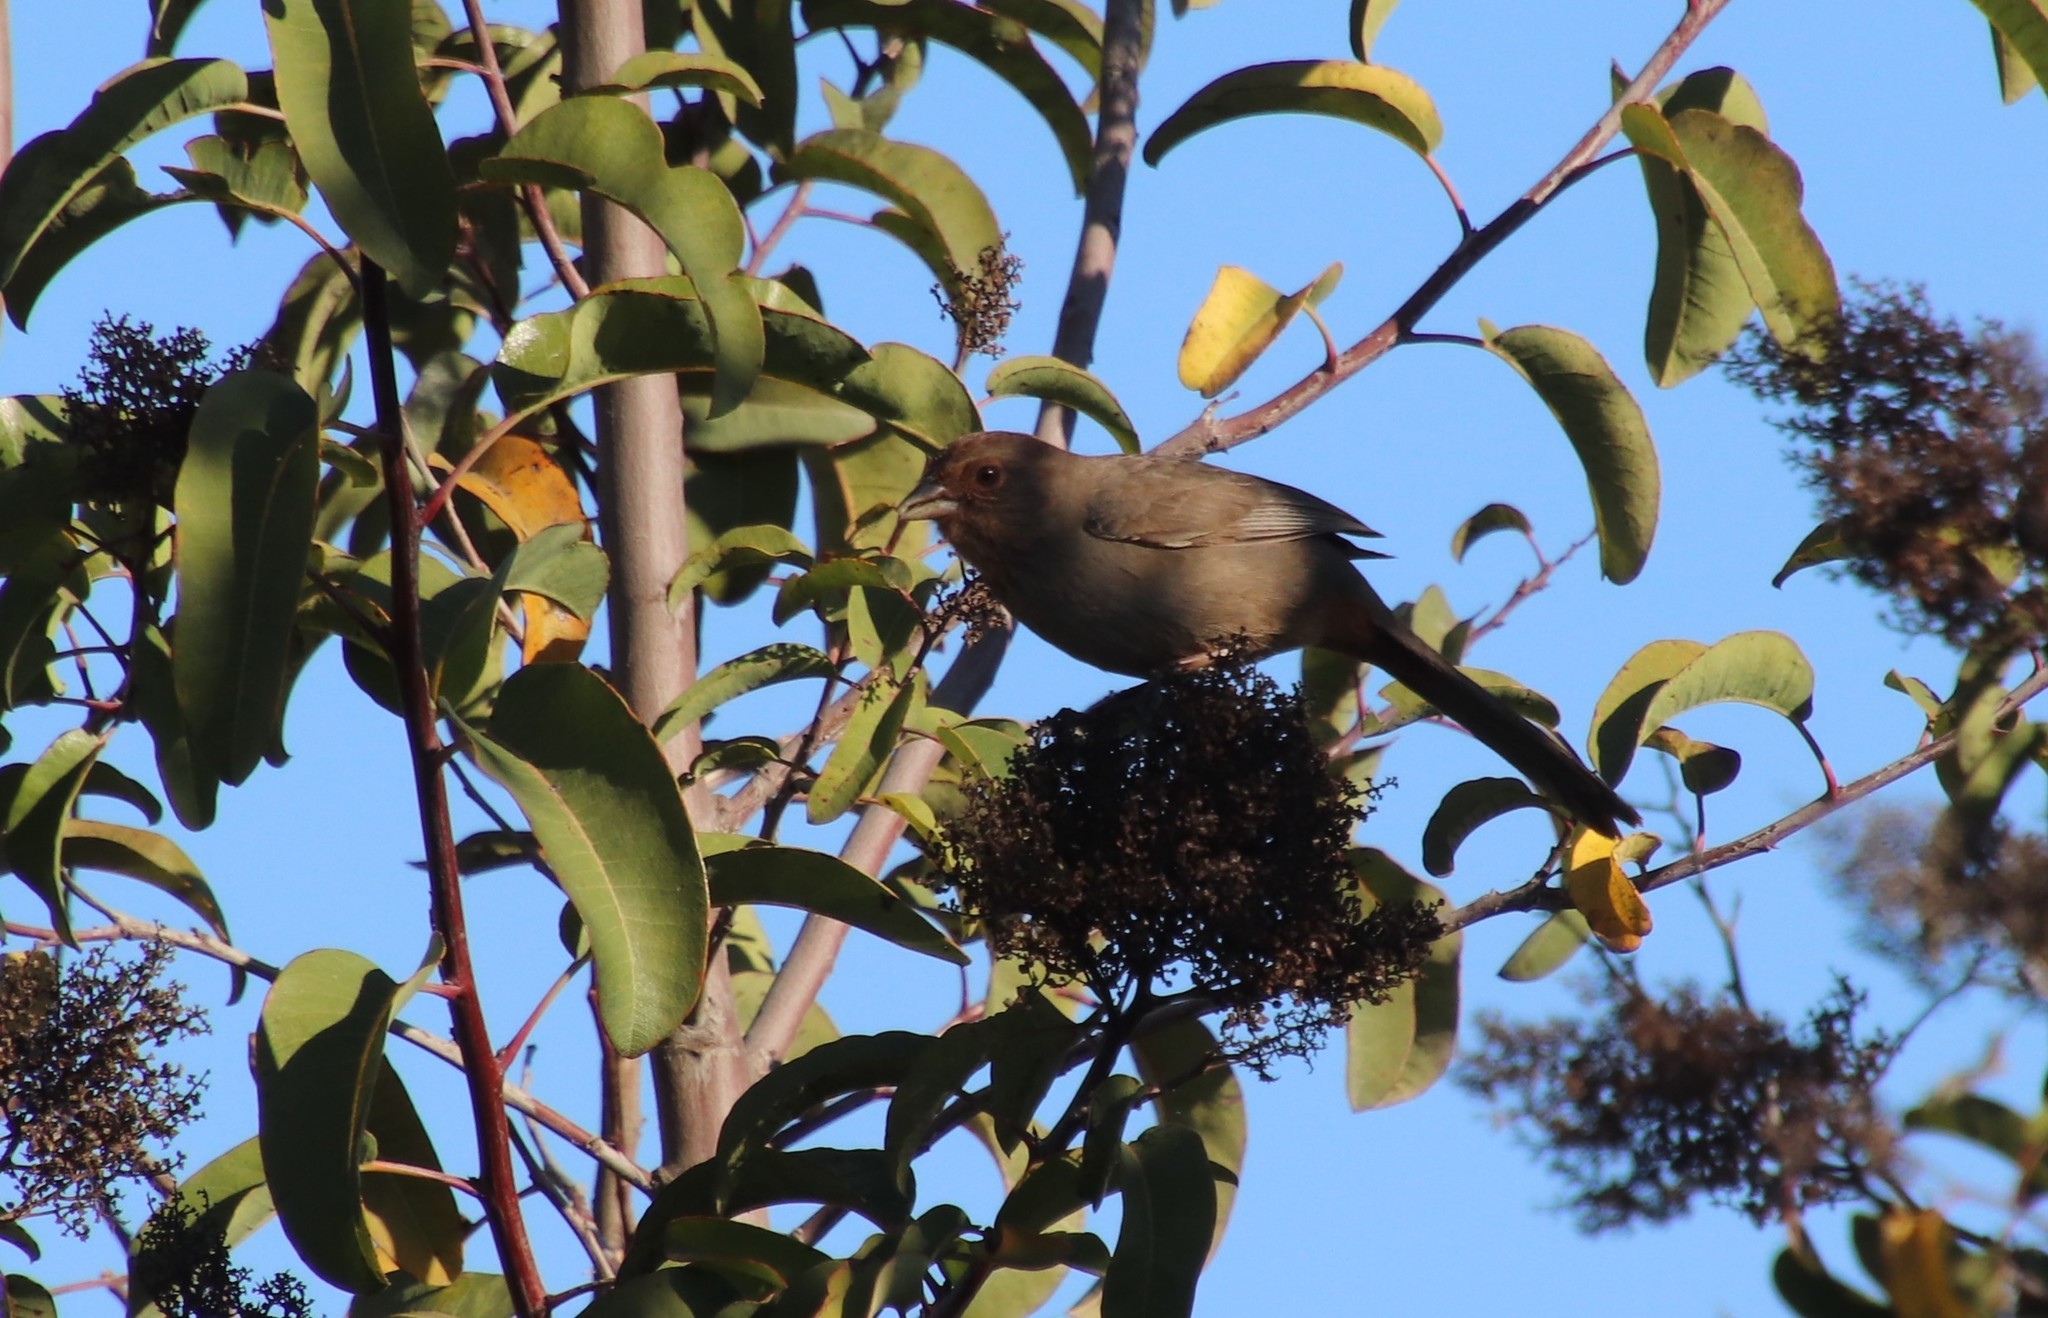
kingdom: Animalia
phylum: Chordata
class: Aves
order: Passeriformes
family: Passerellidae
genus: Melozone
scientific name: Melozone crissalis
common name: California towhee
